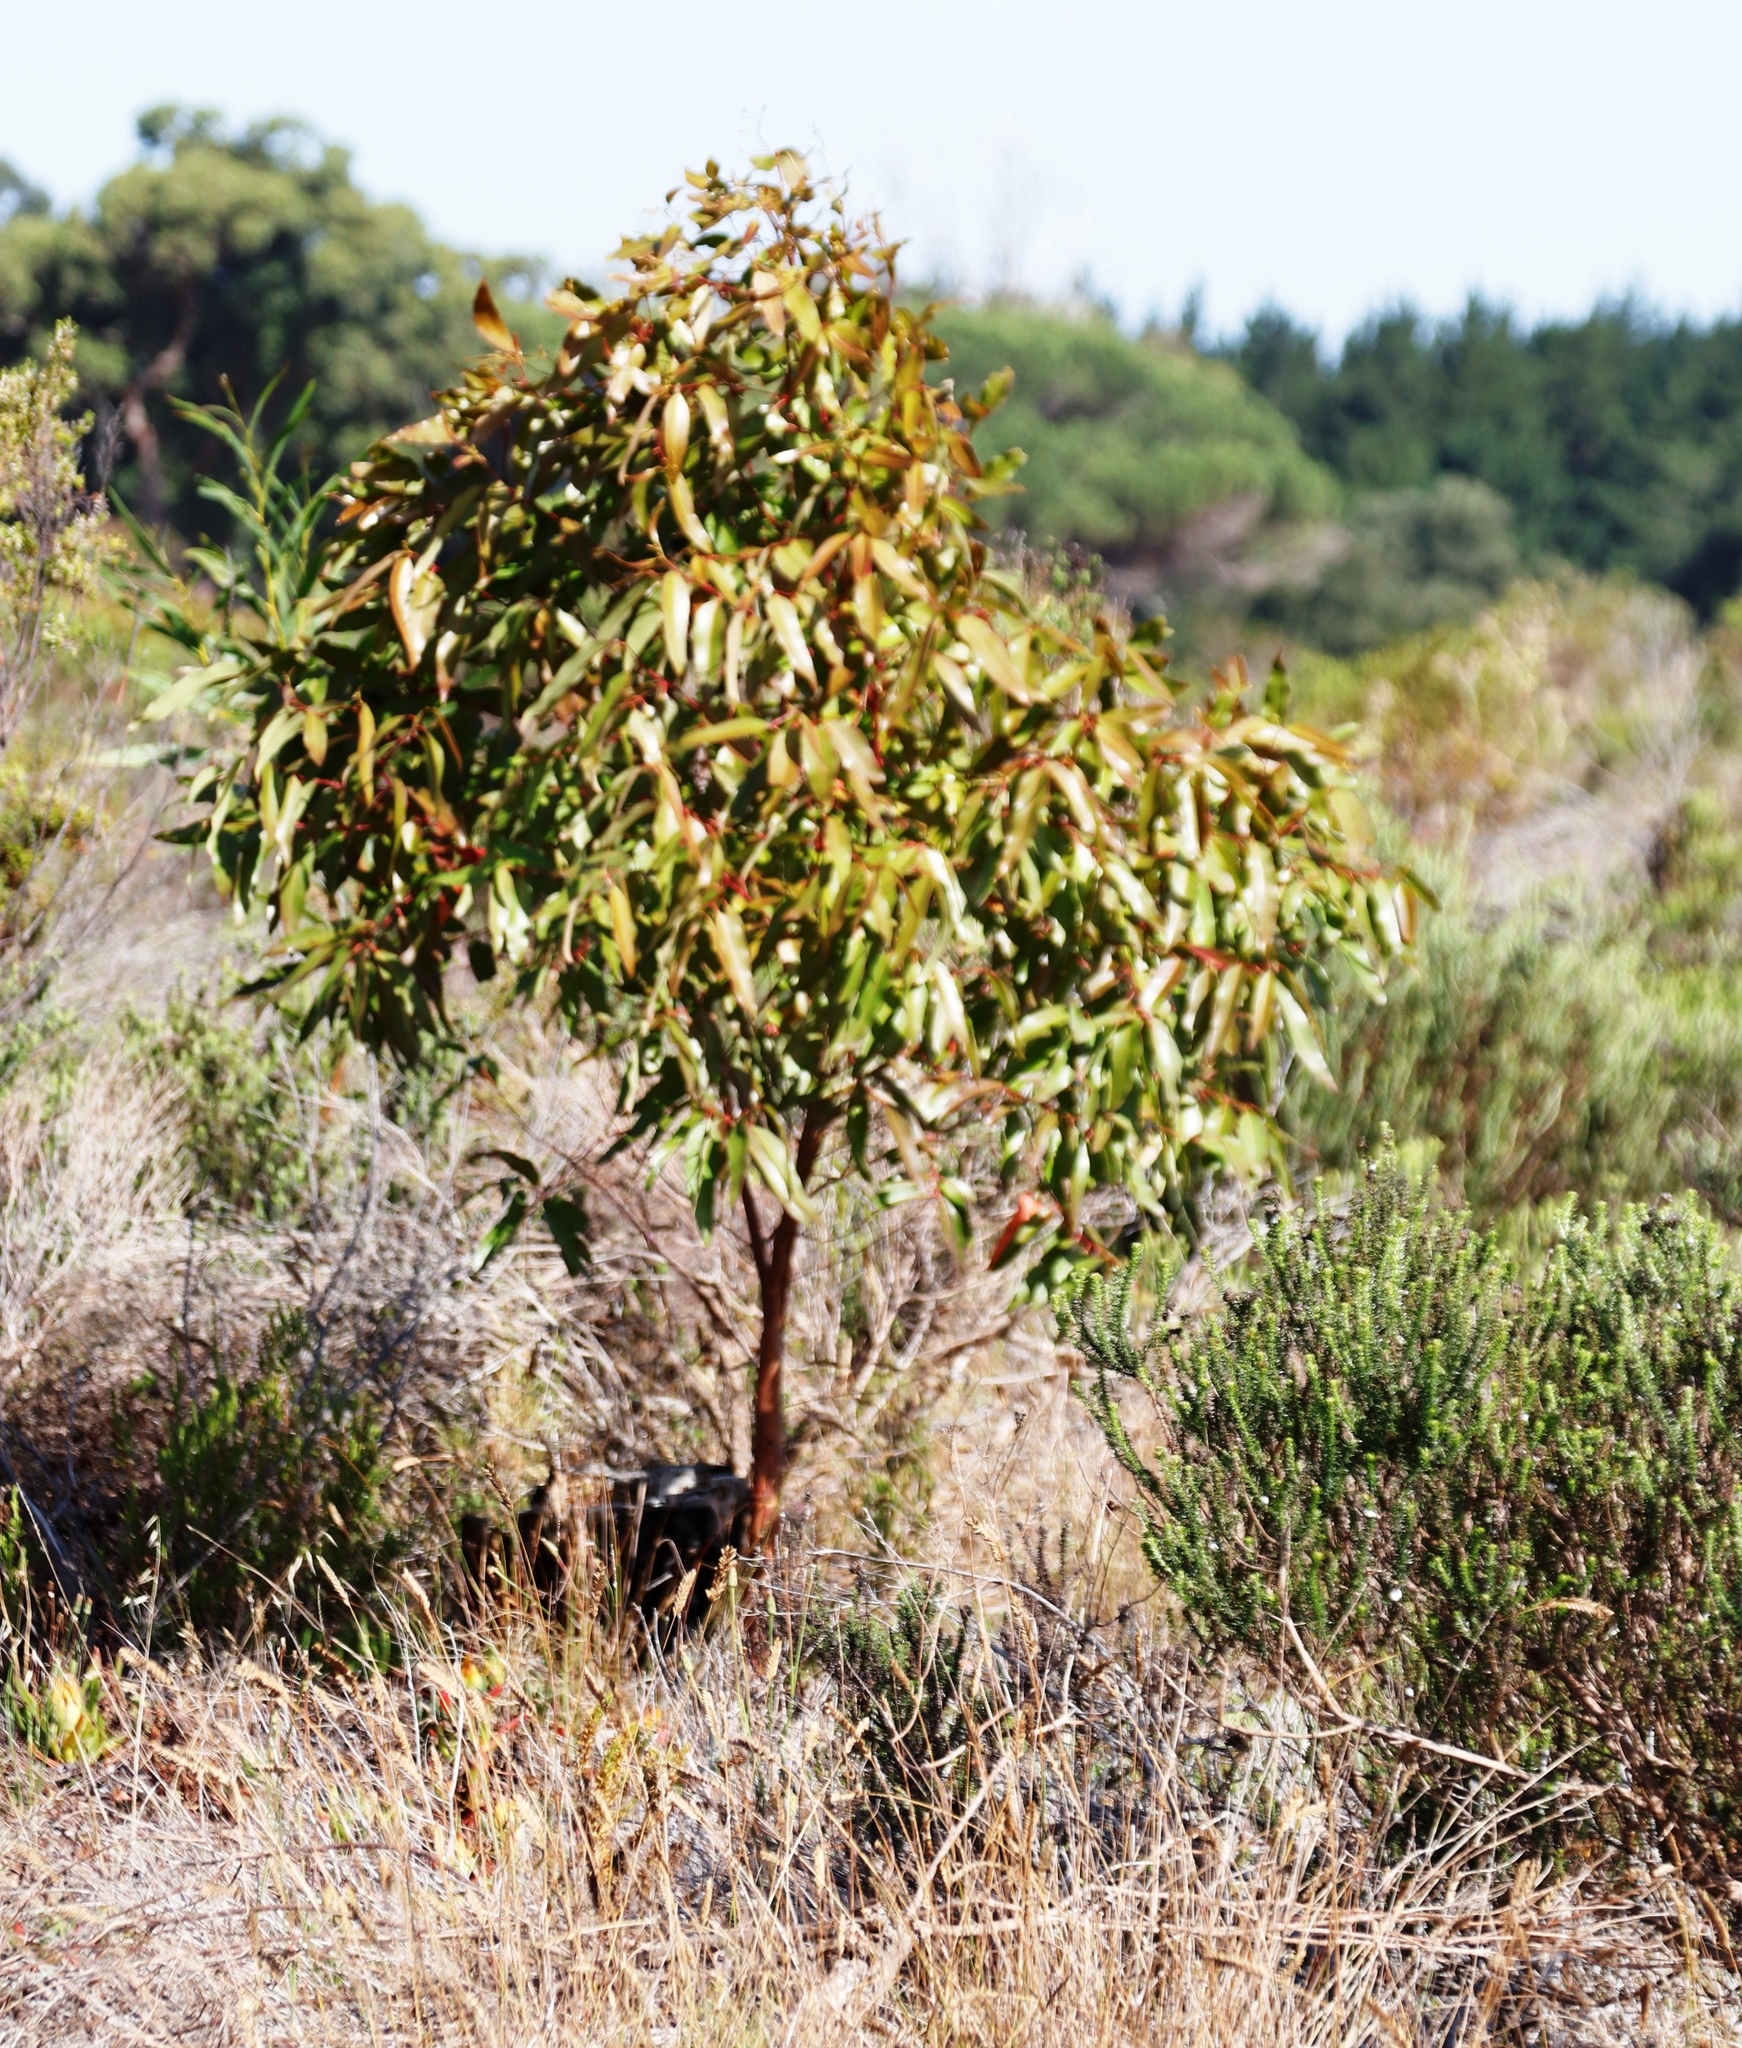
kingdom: Plantae
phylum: Tracheophyta
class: Magnoliopsida
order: Myrtales
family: Myrtaceae
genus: Corymbia
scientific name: Corymbia ficifolia
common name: Redflower gum
